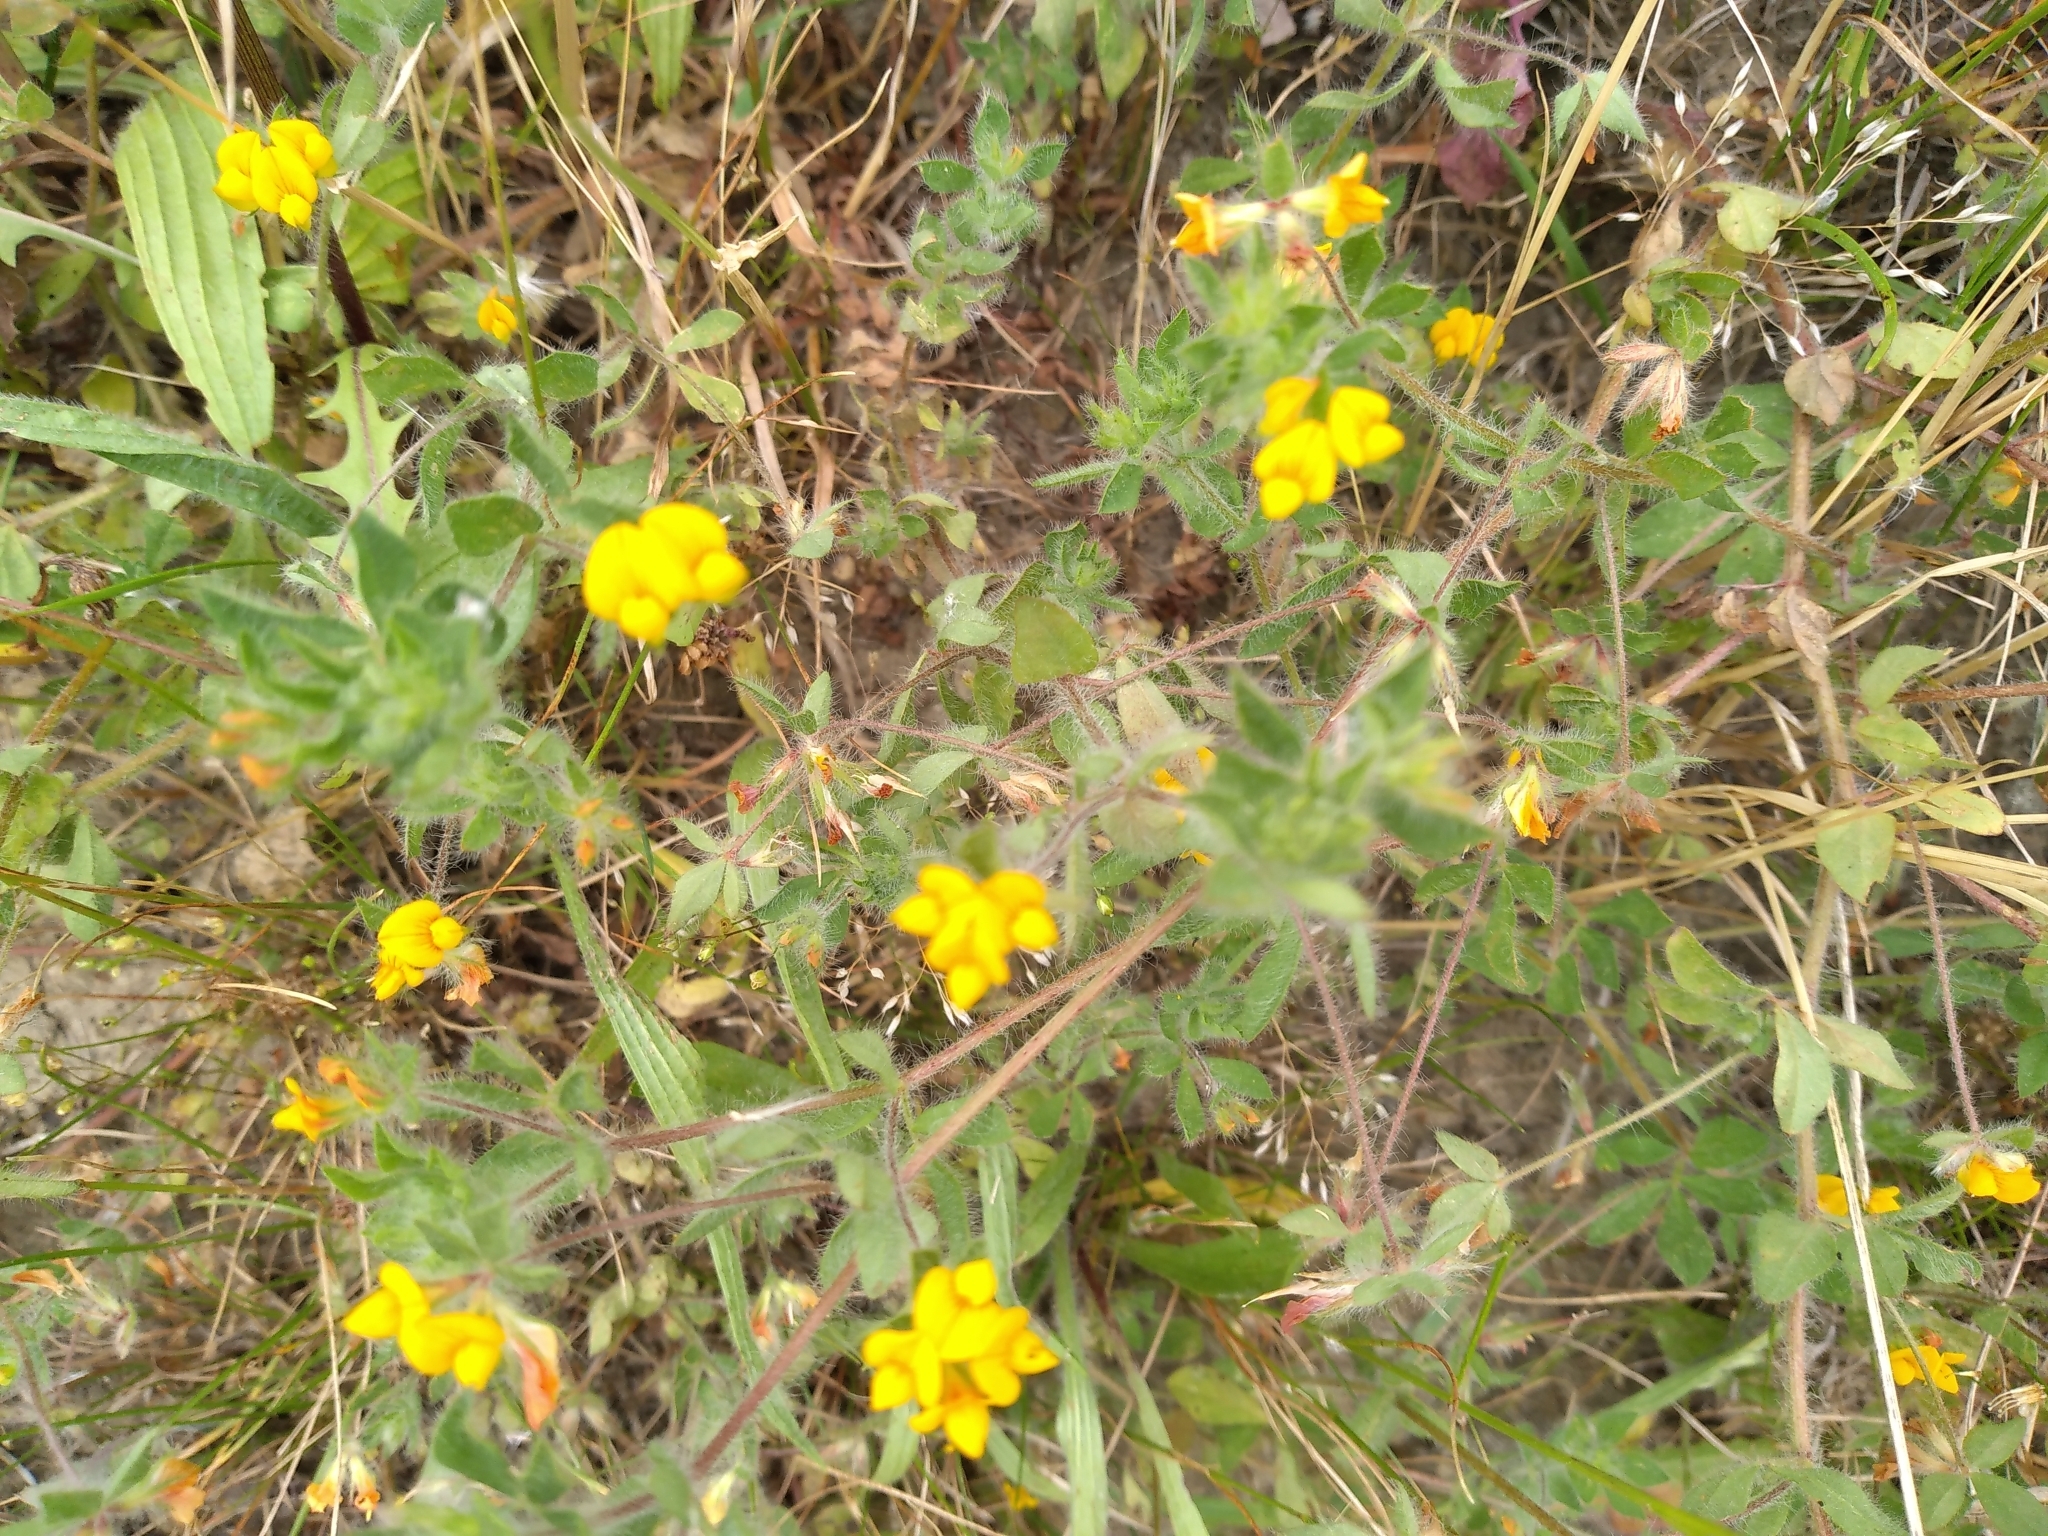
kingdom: Plantae
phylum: Tracheophyta
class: Magnoliopsida
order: Fabales
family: Fabaceae
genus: Lotus
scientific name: Lotus subbiflorus
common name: Hairy bird's-foot trefoil
